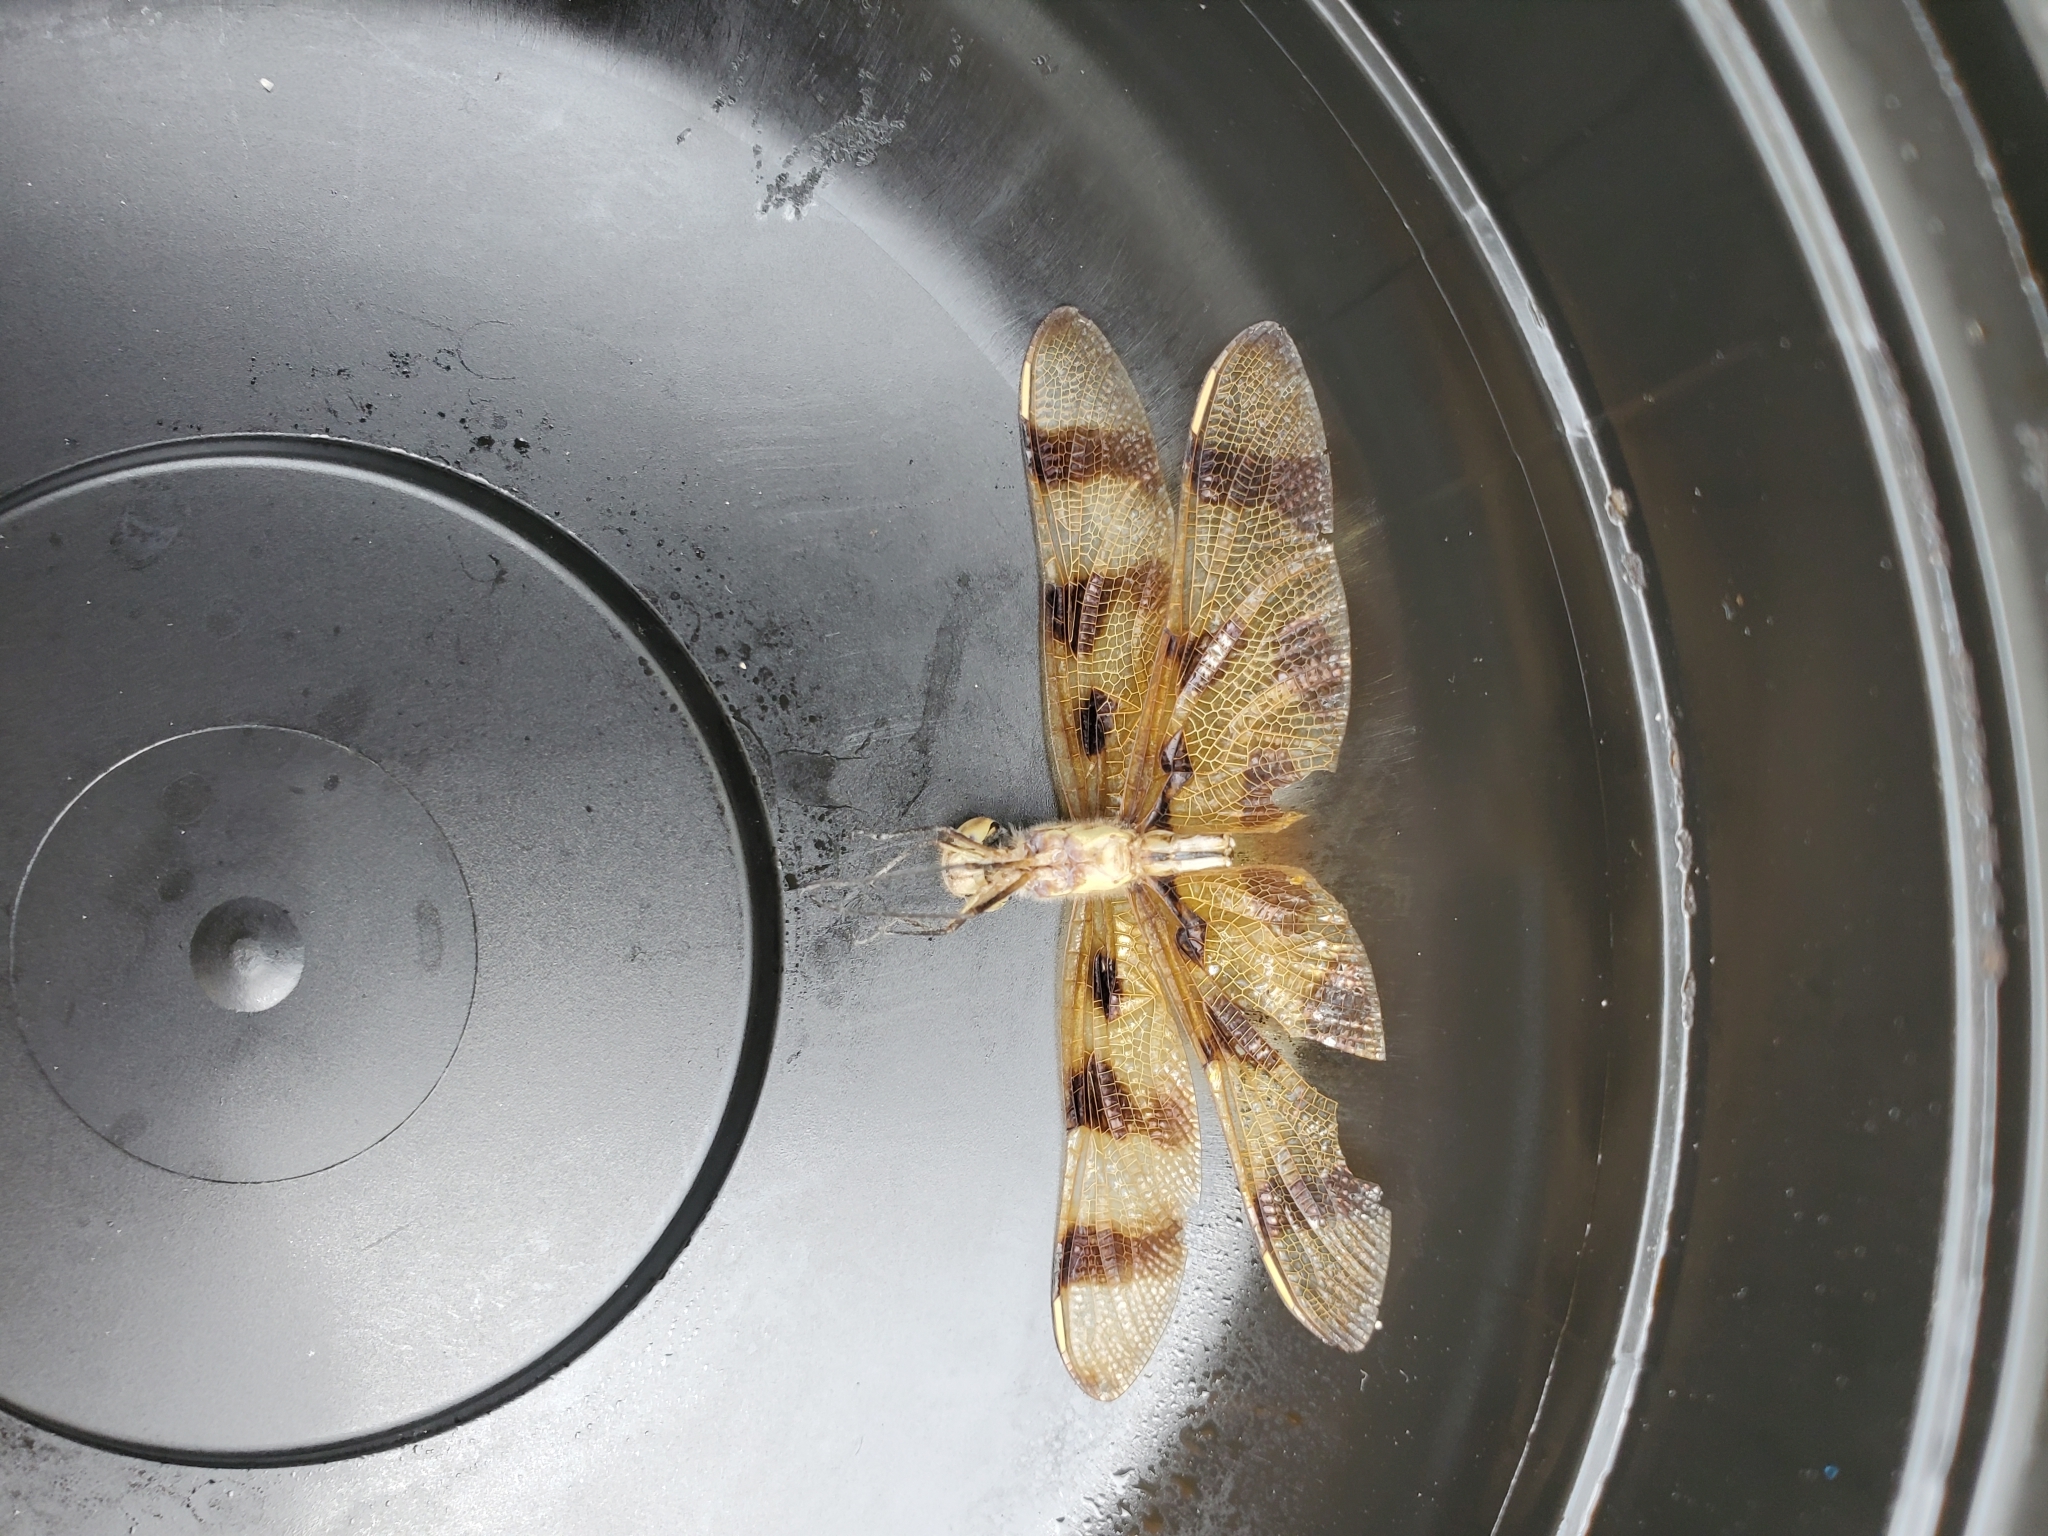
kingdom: Animalia
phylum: Arthropoda
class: Insecta
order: Odonata
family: Libellulidae
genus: Celithemis
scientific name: Celithemis eponina
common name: Halloween pennant
